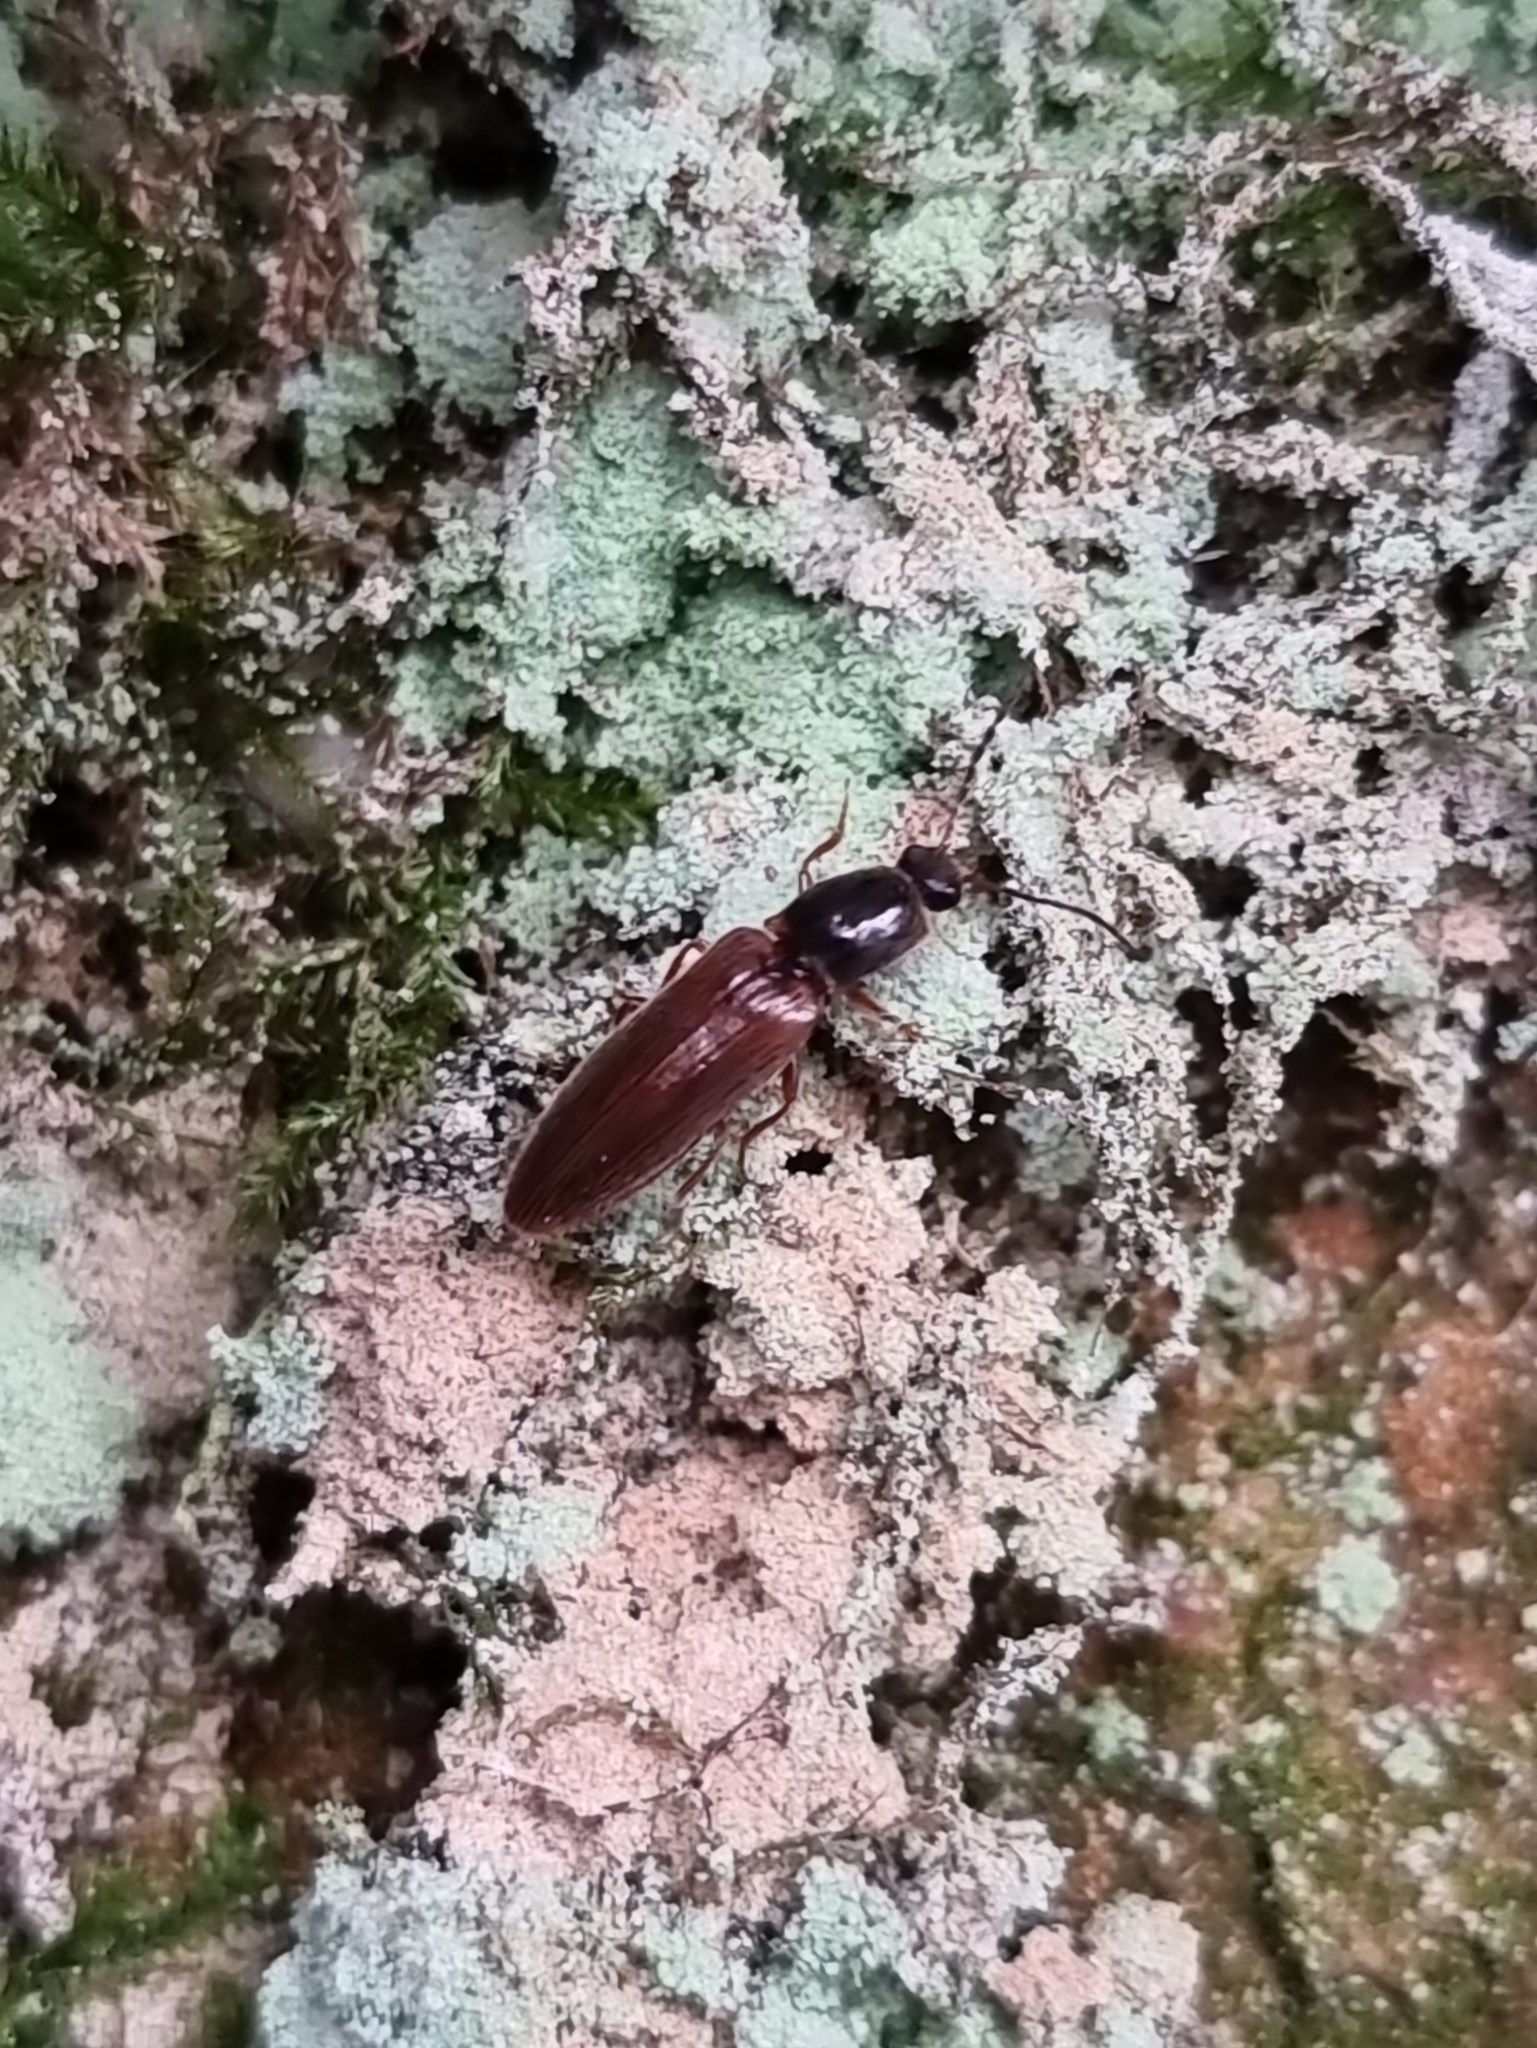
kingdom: Animalia
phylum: Arthropoda
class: Insecta
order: Coleoptera
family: Elateridae
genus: Athous
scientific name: Athous subfuscus
